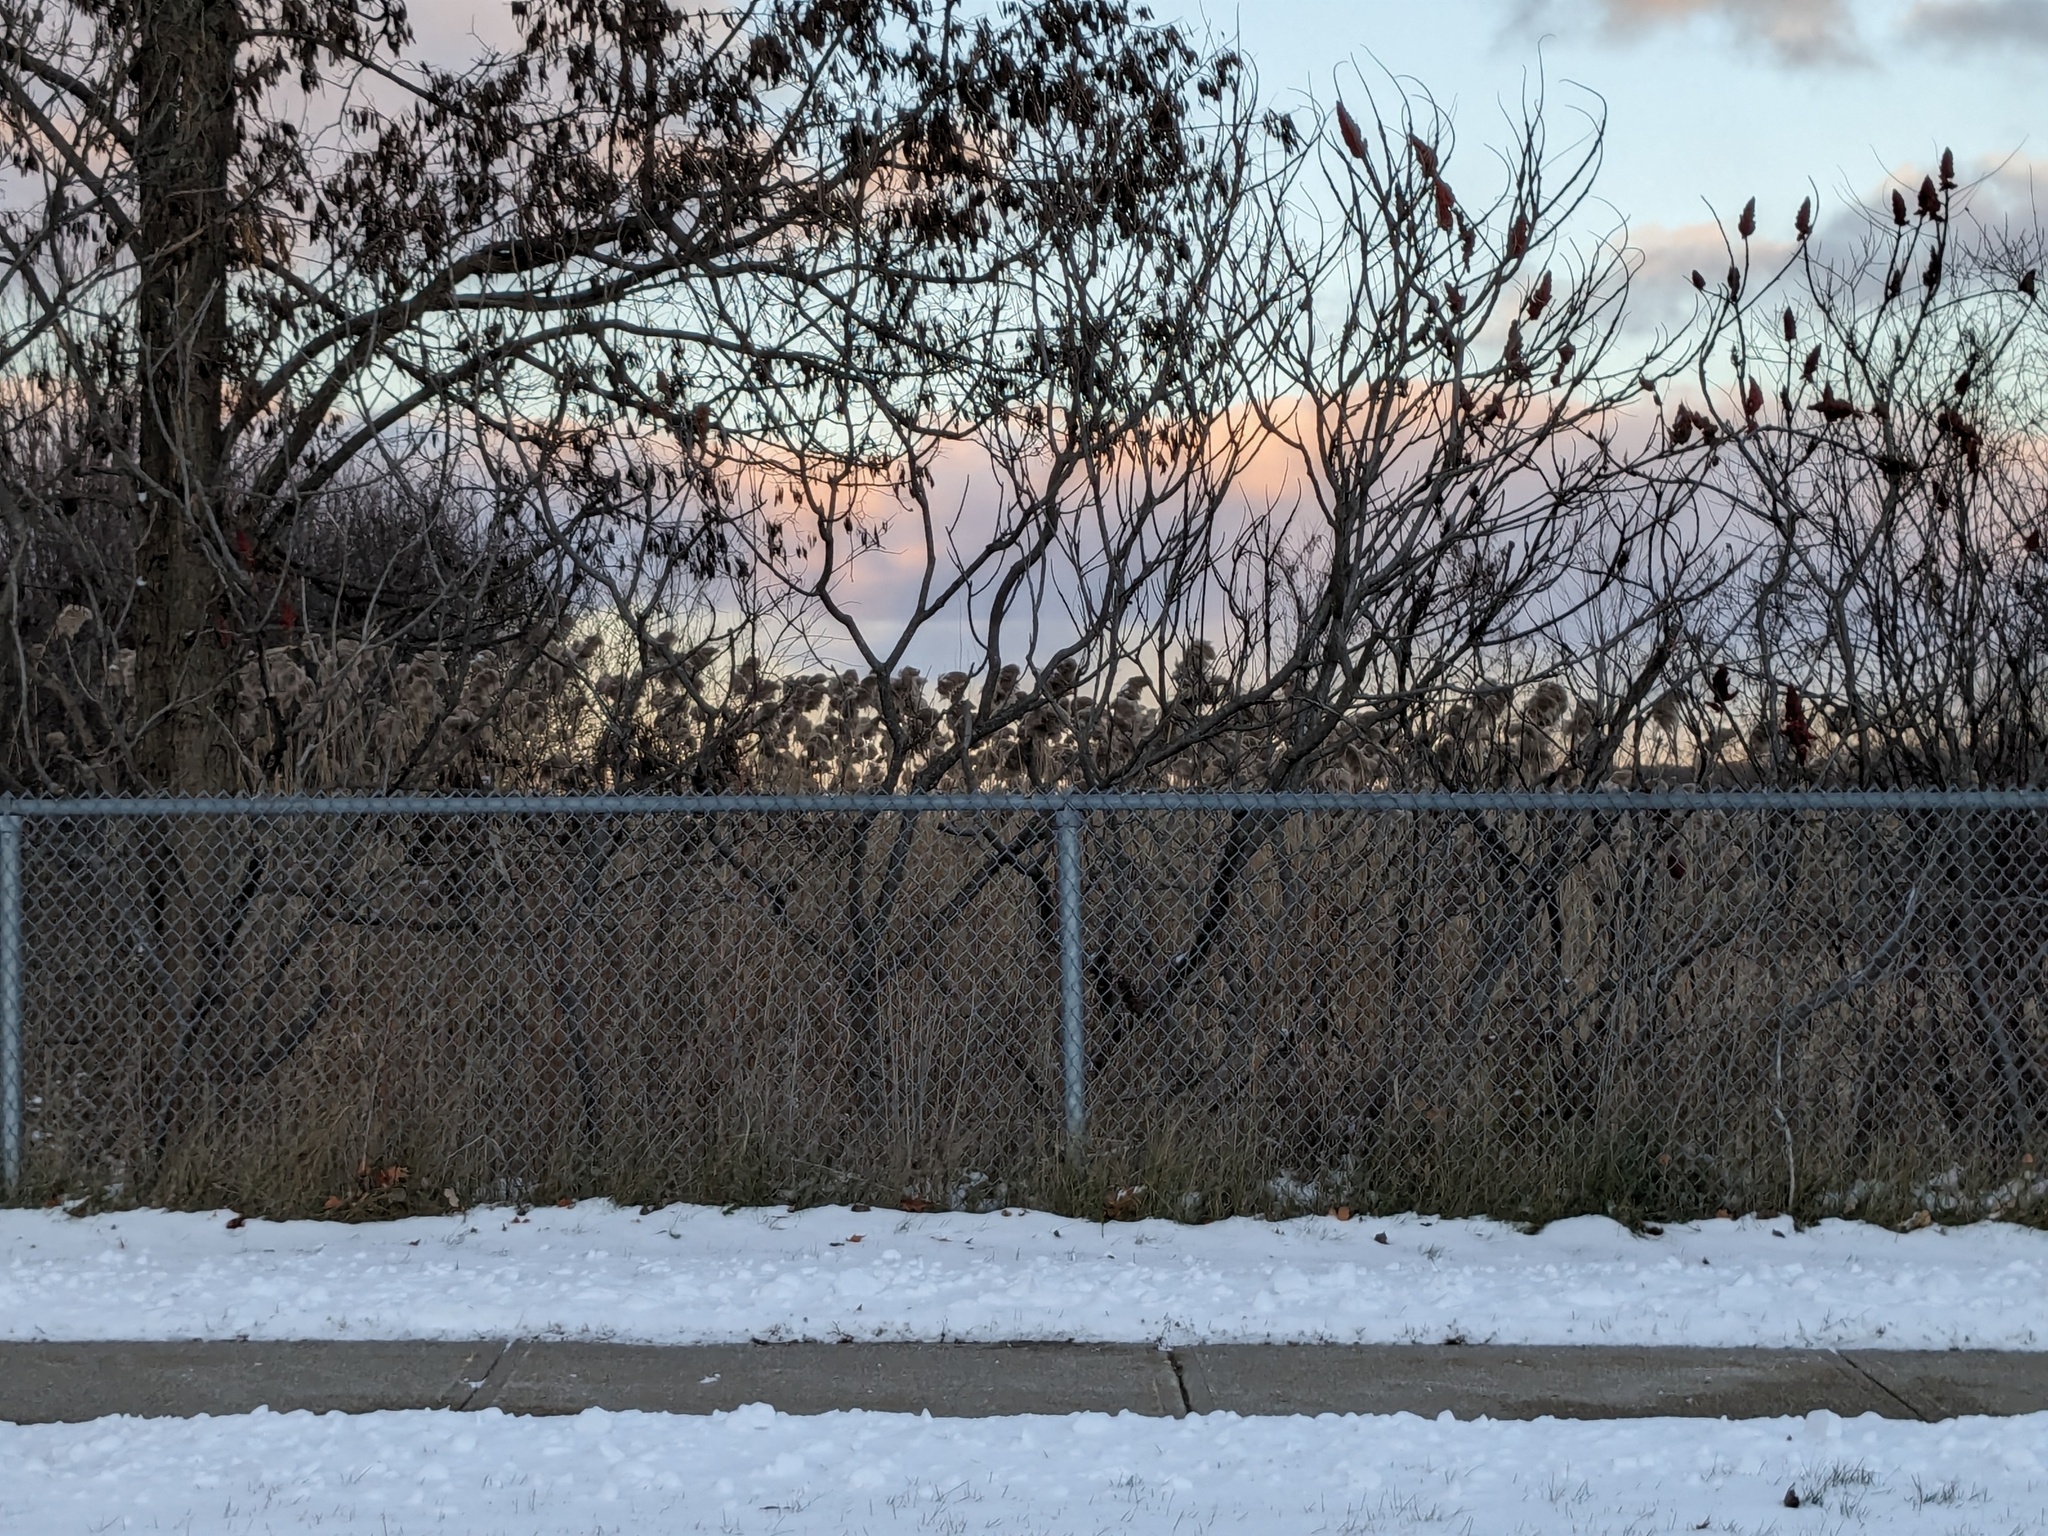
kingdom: Plantae
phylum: Tracheophyta
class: Liliopsida
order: Poales
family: Poaceae
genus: Phragmites
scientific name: Phragmites australis
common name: Common reed
